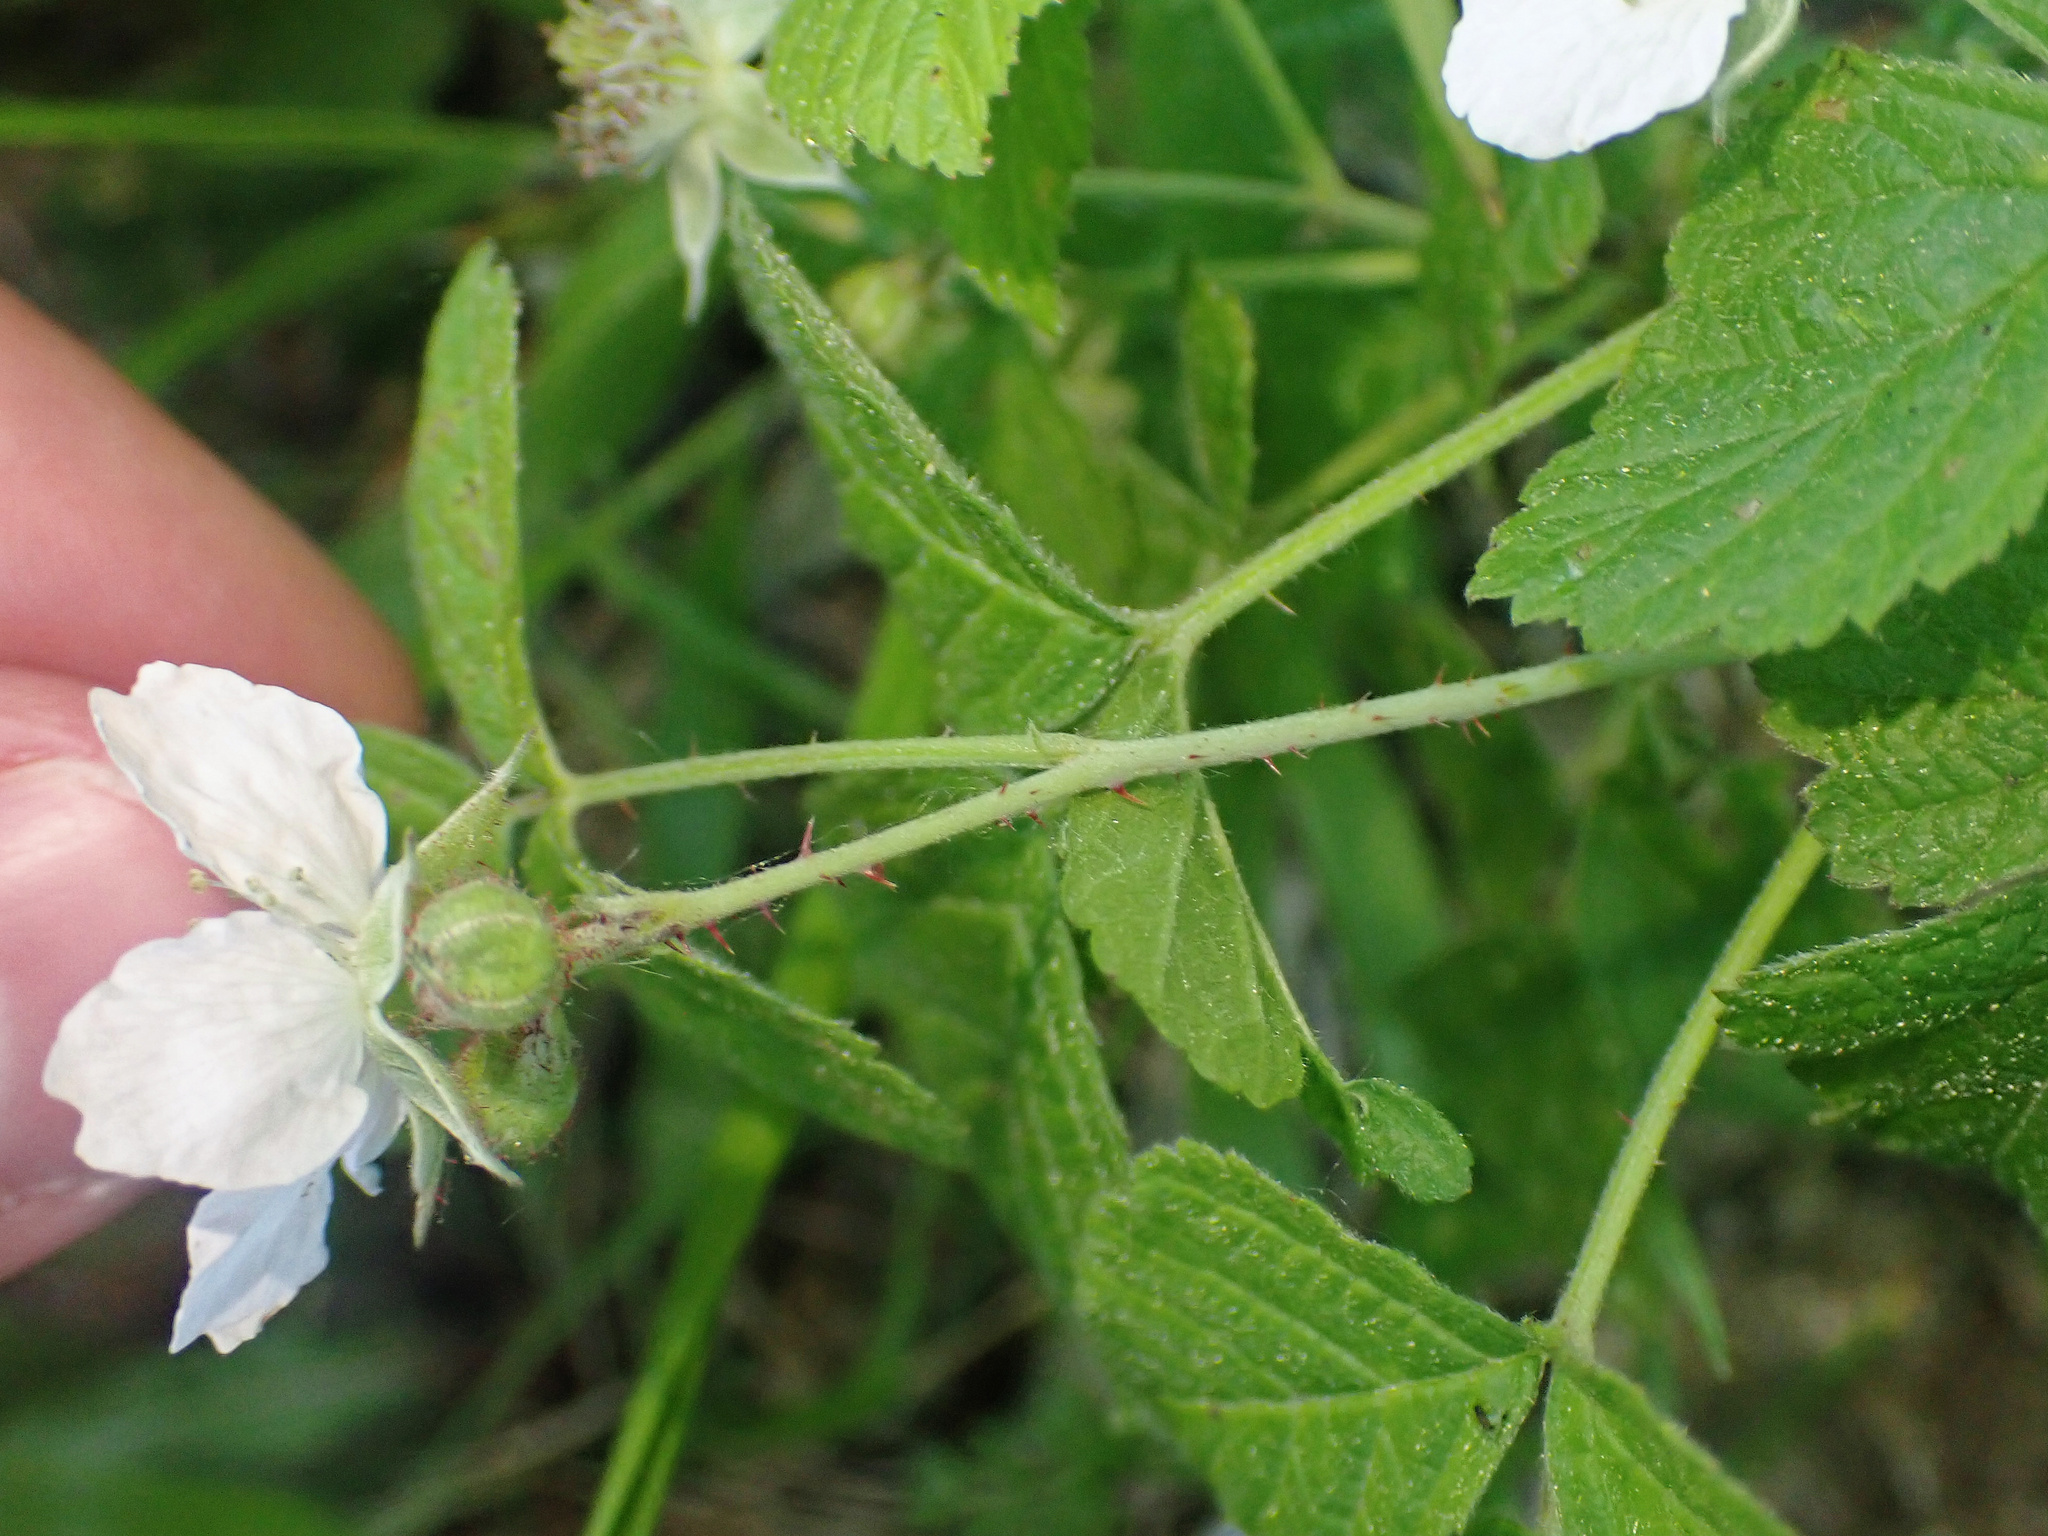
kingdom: Plantae
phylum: Tracheophyta
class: Magnoliopsida
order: Rosales
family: Rosaceae
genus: Rubus
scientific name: Rubus caesius
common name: Dewberry
